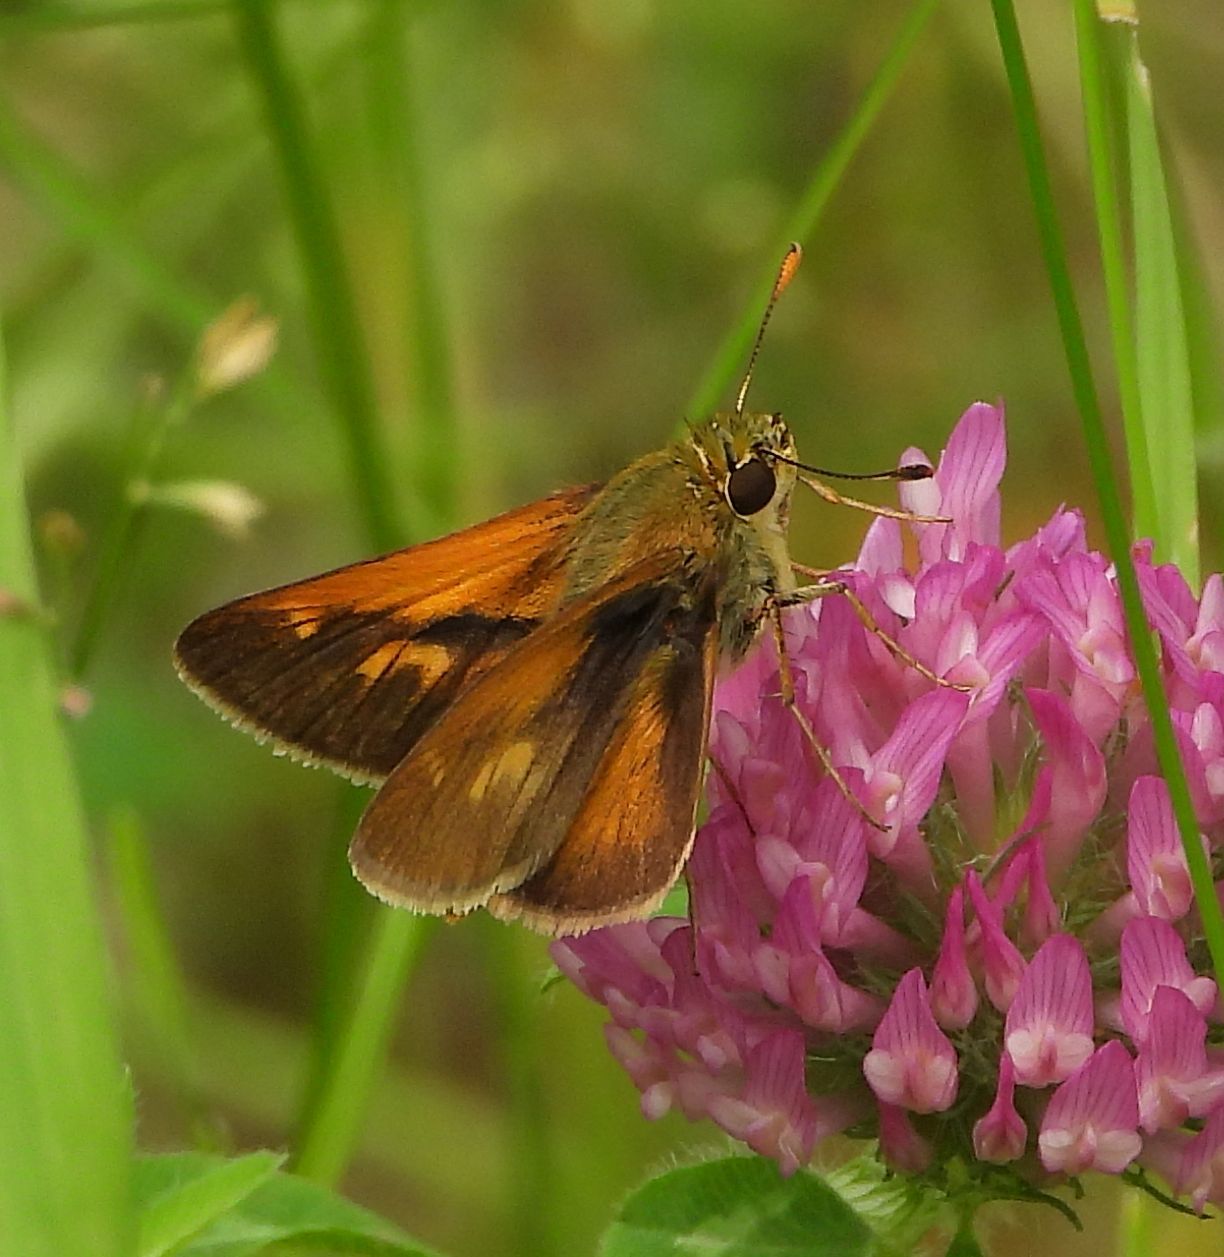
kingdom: Animalia
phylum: Arthropoda
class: Insecta
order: Lepidoptera
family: Hesperiidae
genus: Polites
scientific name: Polites origenes
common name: Crossline skipper
